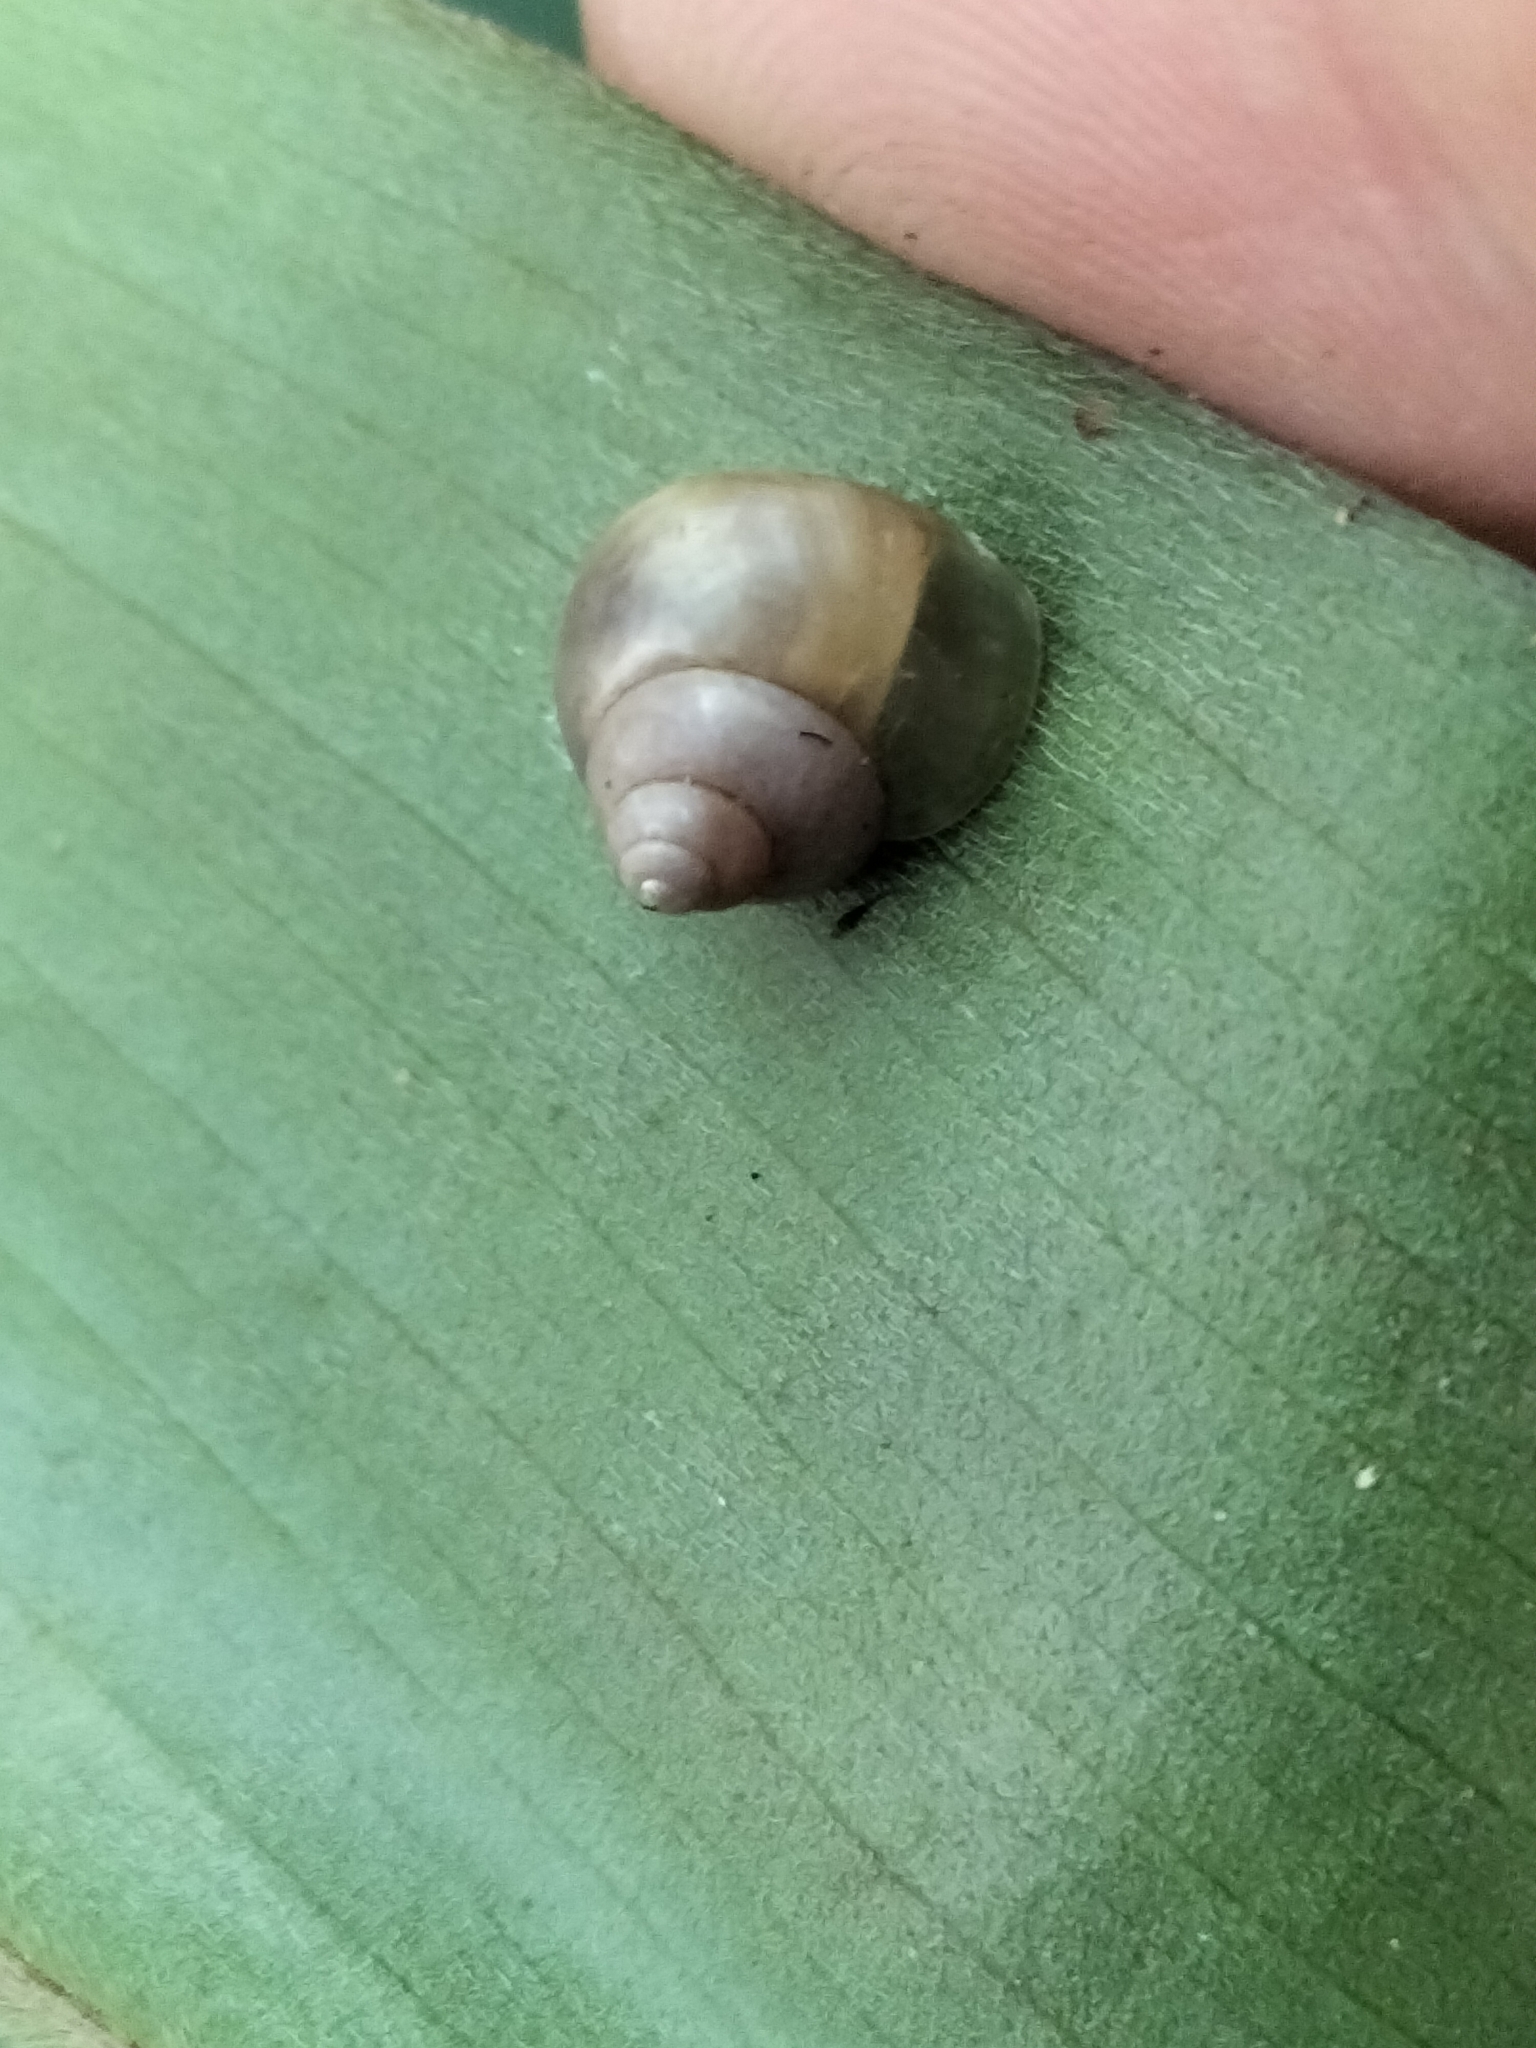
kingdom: Animalia
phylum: Mollusca
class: Gastropoda
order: Architaenioglossa
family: Cyclophoridae
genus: Leptopoma
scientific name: Leptopoma perlucidum
